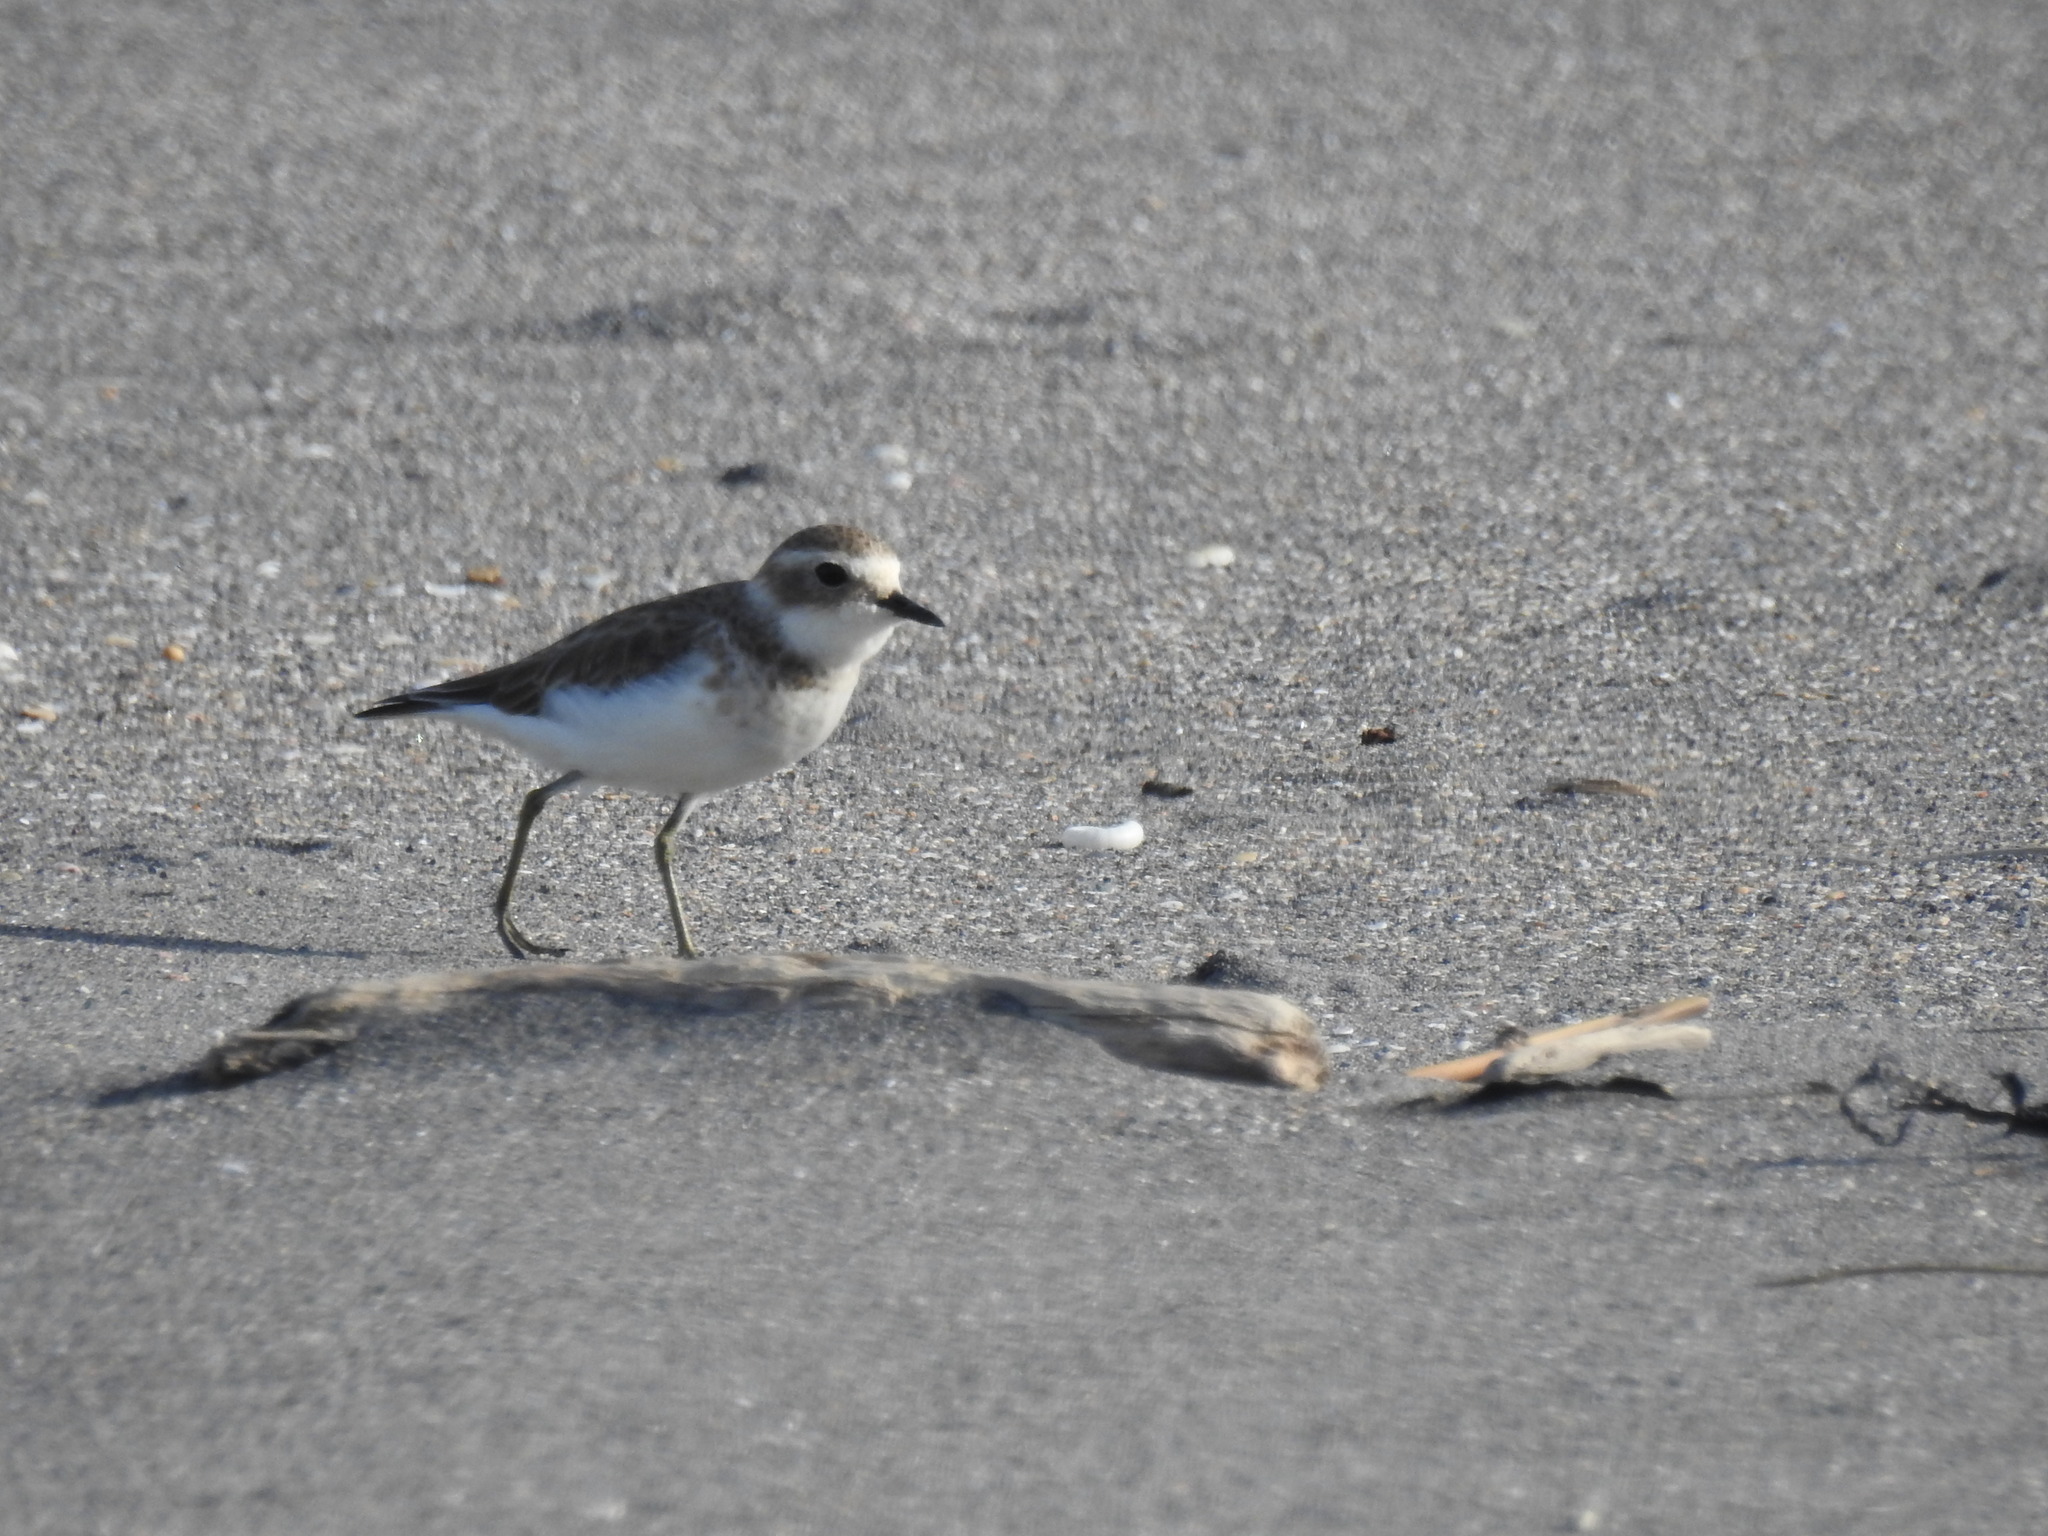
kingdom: Animalia
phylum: Chordata
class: Aves
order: Charadriiformes
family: Charadriidae
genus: Anarhynchus
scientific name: Anarhynchus
